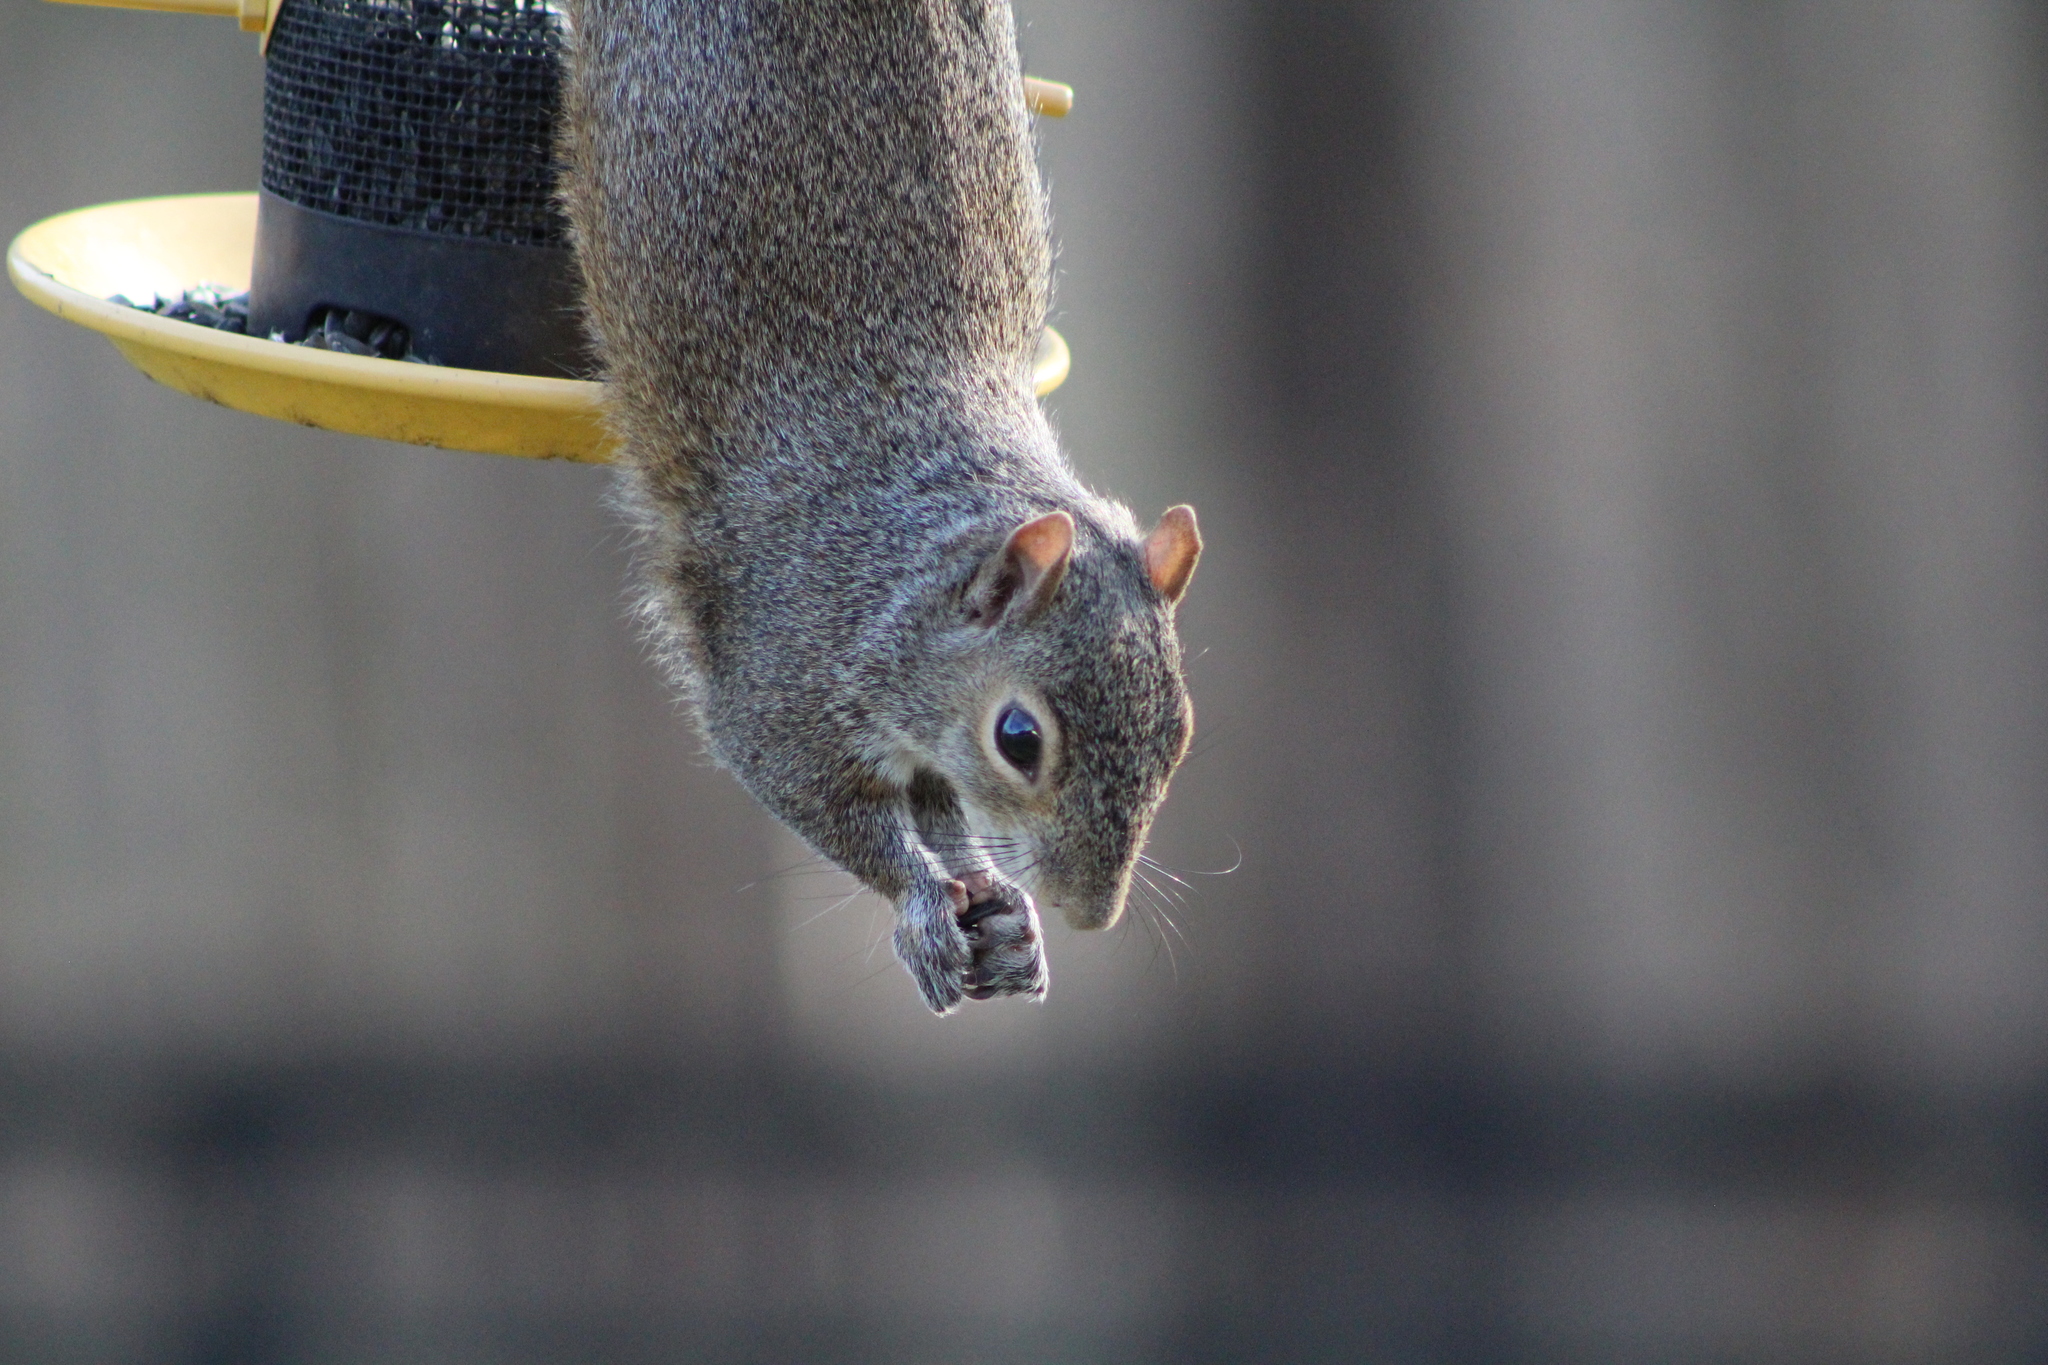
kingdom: Animalia
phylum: Chordata
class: Mammalia
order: Rodentia
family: Sciuridae
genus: Sciurus
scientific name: Sciurus carolinensis
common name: Eastern gray squirrel
